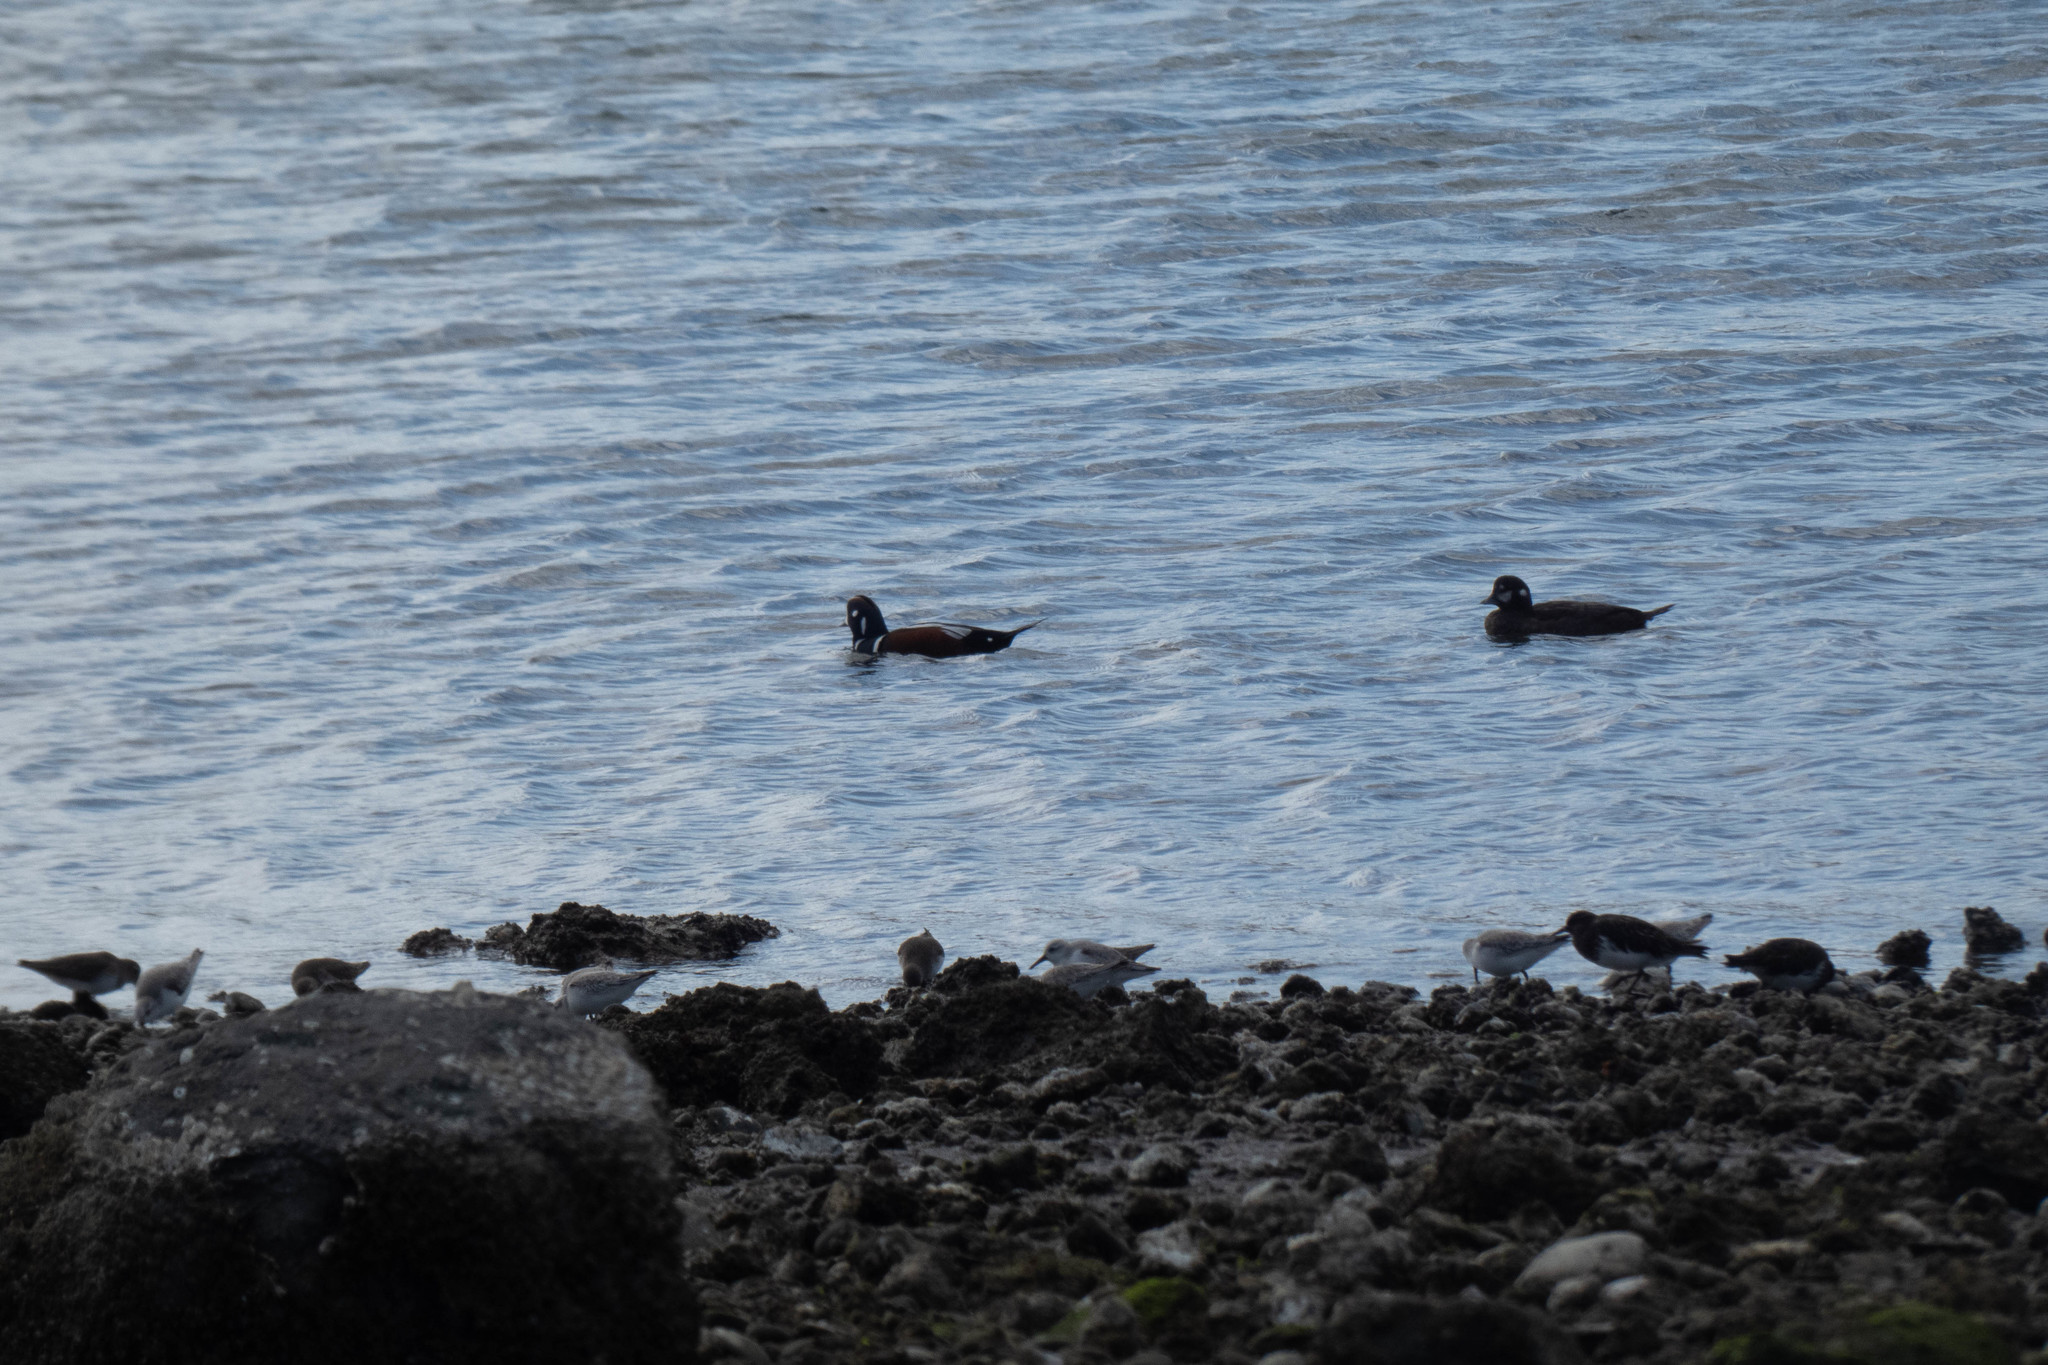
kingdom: Animalia
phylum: Chordata
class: Aves
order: Anseriformes
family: Anatidae
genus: Histrionicus
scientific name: Histrionicus histrionicus
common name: Harlequin duck
